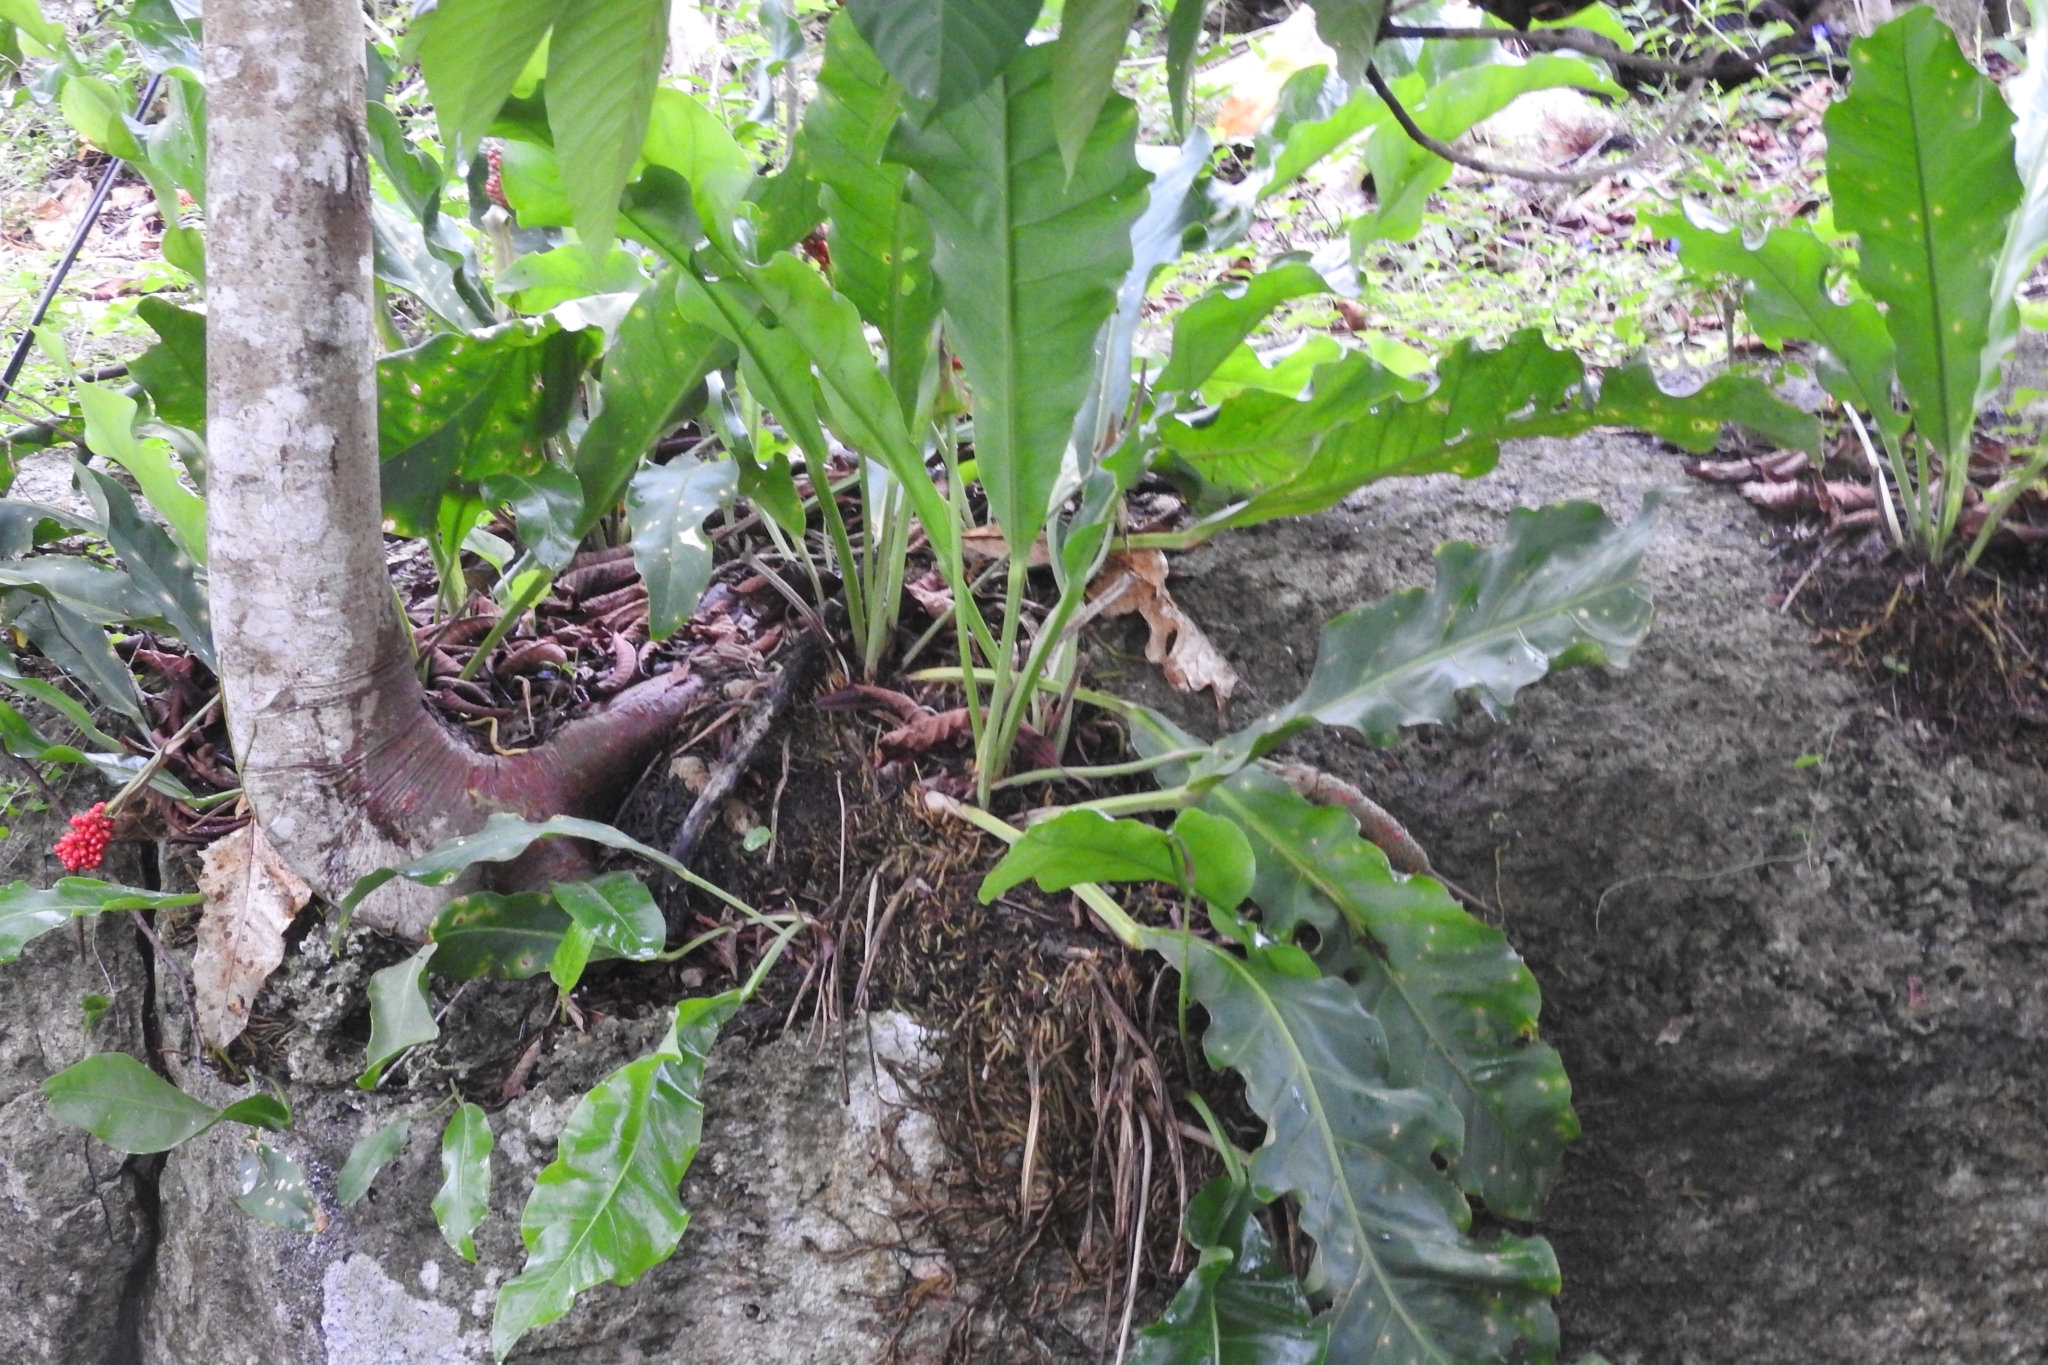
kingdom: Plantae
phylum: Tracheophyta
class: Liliopsida
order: Alismatales
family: Araceae
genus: Anthurium
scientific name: Anthurium schlechtendalii
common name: Laceleaf
